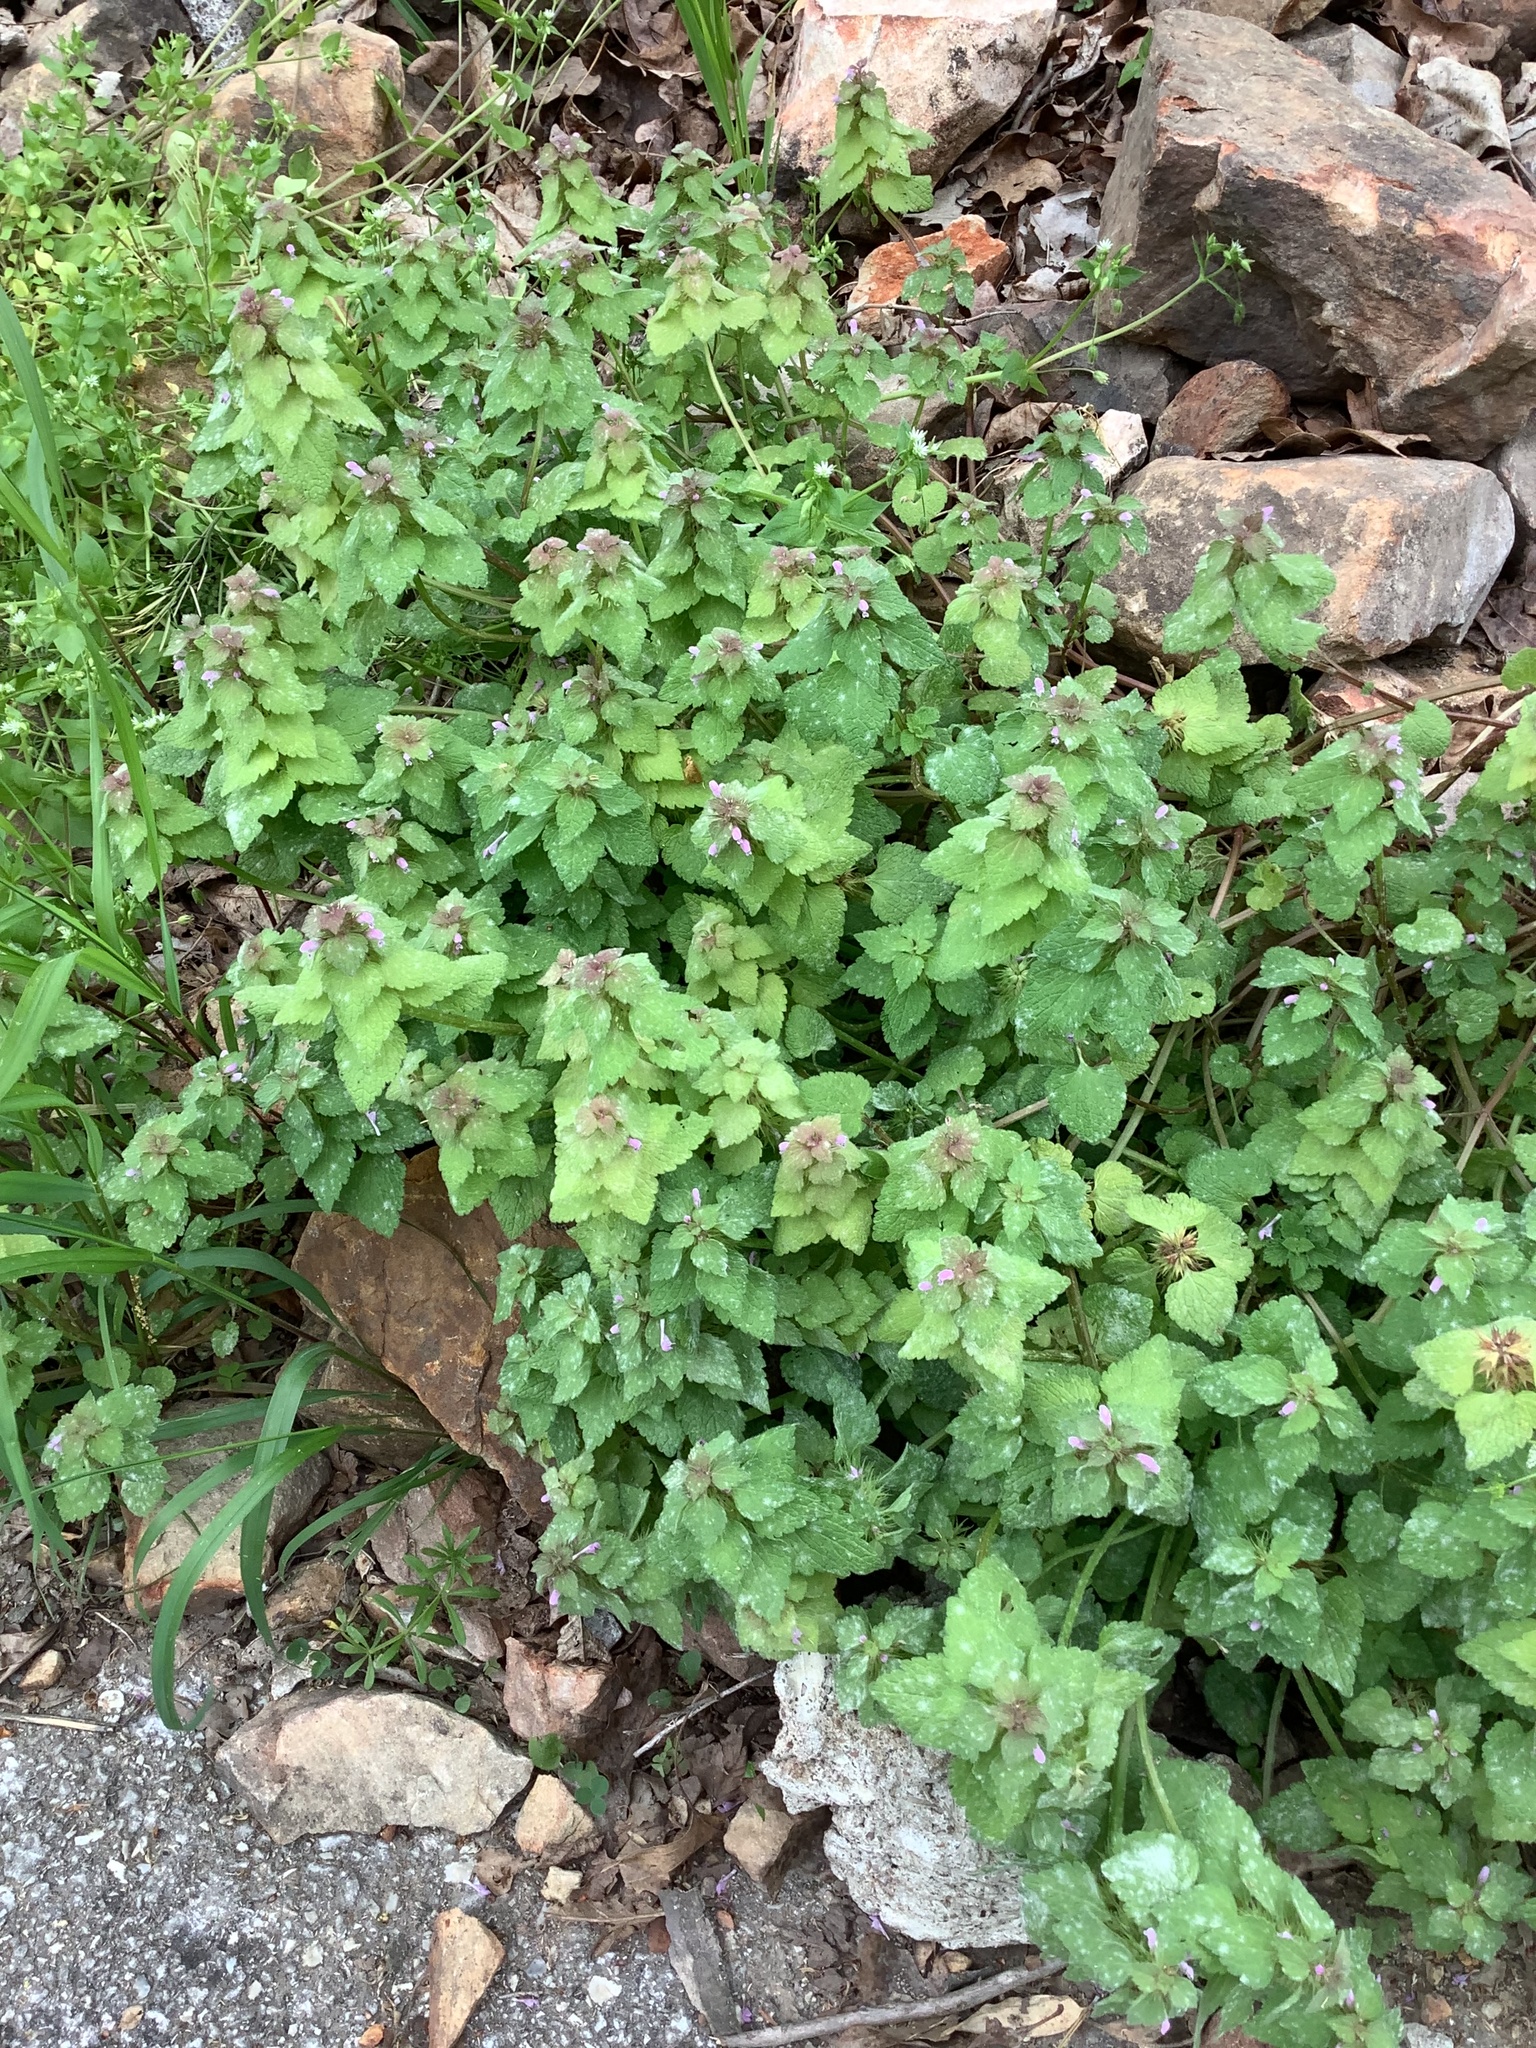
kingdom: Plantae
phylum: Tracheophyta
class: Magnoliopsida
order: Lamiales
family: Lamiaceae
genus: Lamium
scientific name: Lamium purpureum
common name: Red dead-nettle
